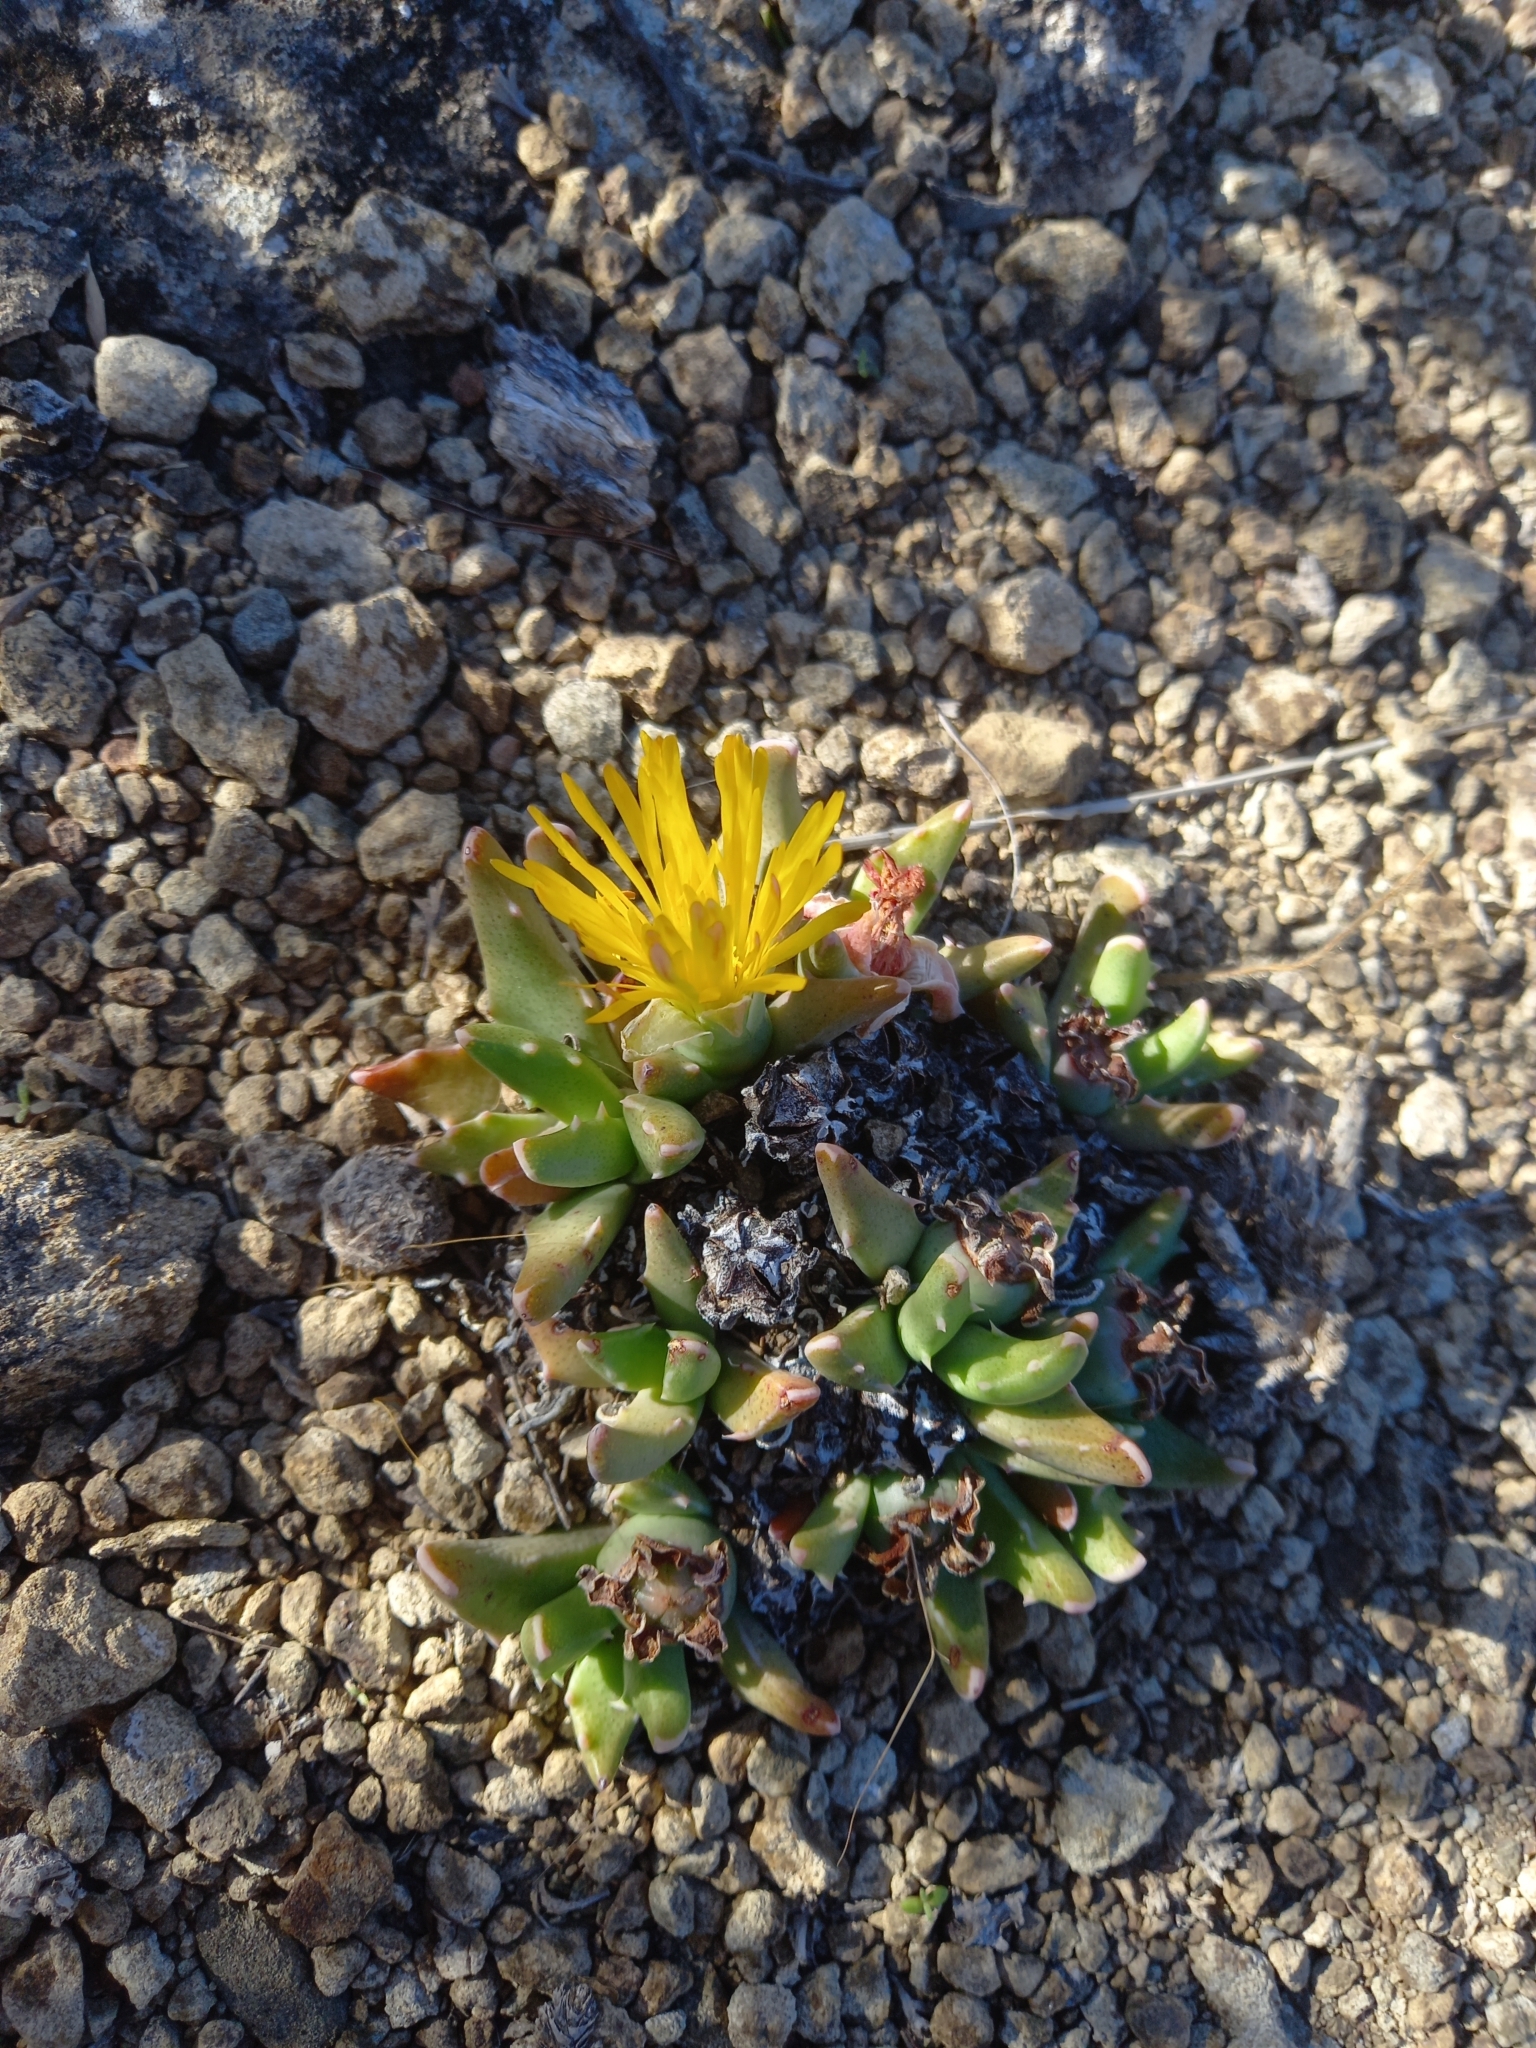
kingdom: Plantae
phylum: Tracheophyta
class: Magnoliopsida
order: Caryophyllales
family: Aizoaceae
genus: Faucaria
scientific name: Faucaria bosscheana
